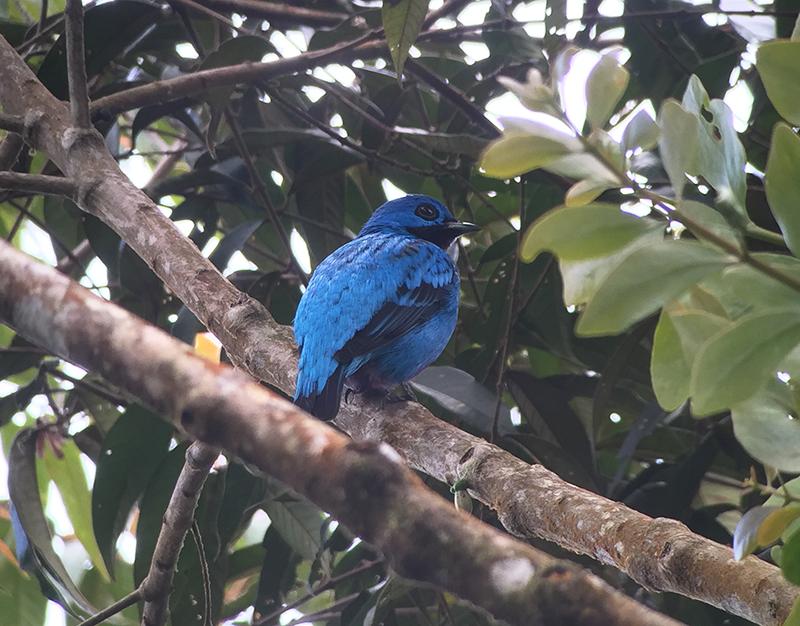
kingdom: Animalia
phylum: Chordata
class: Aves
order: Passeriformes
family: Cotingidae
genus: Cotinga
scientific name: Cotinga nattererii
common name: Blue cotinga
